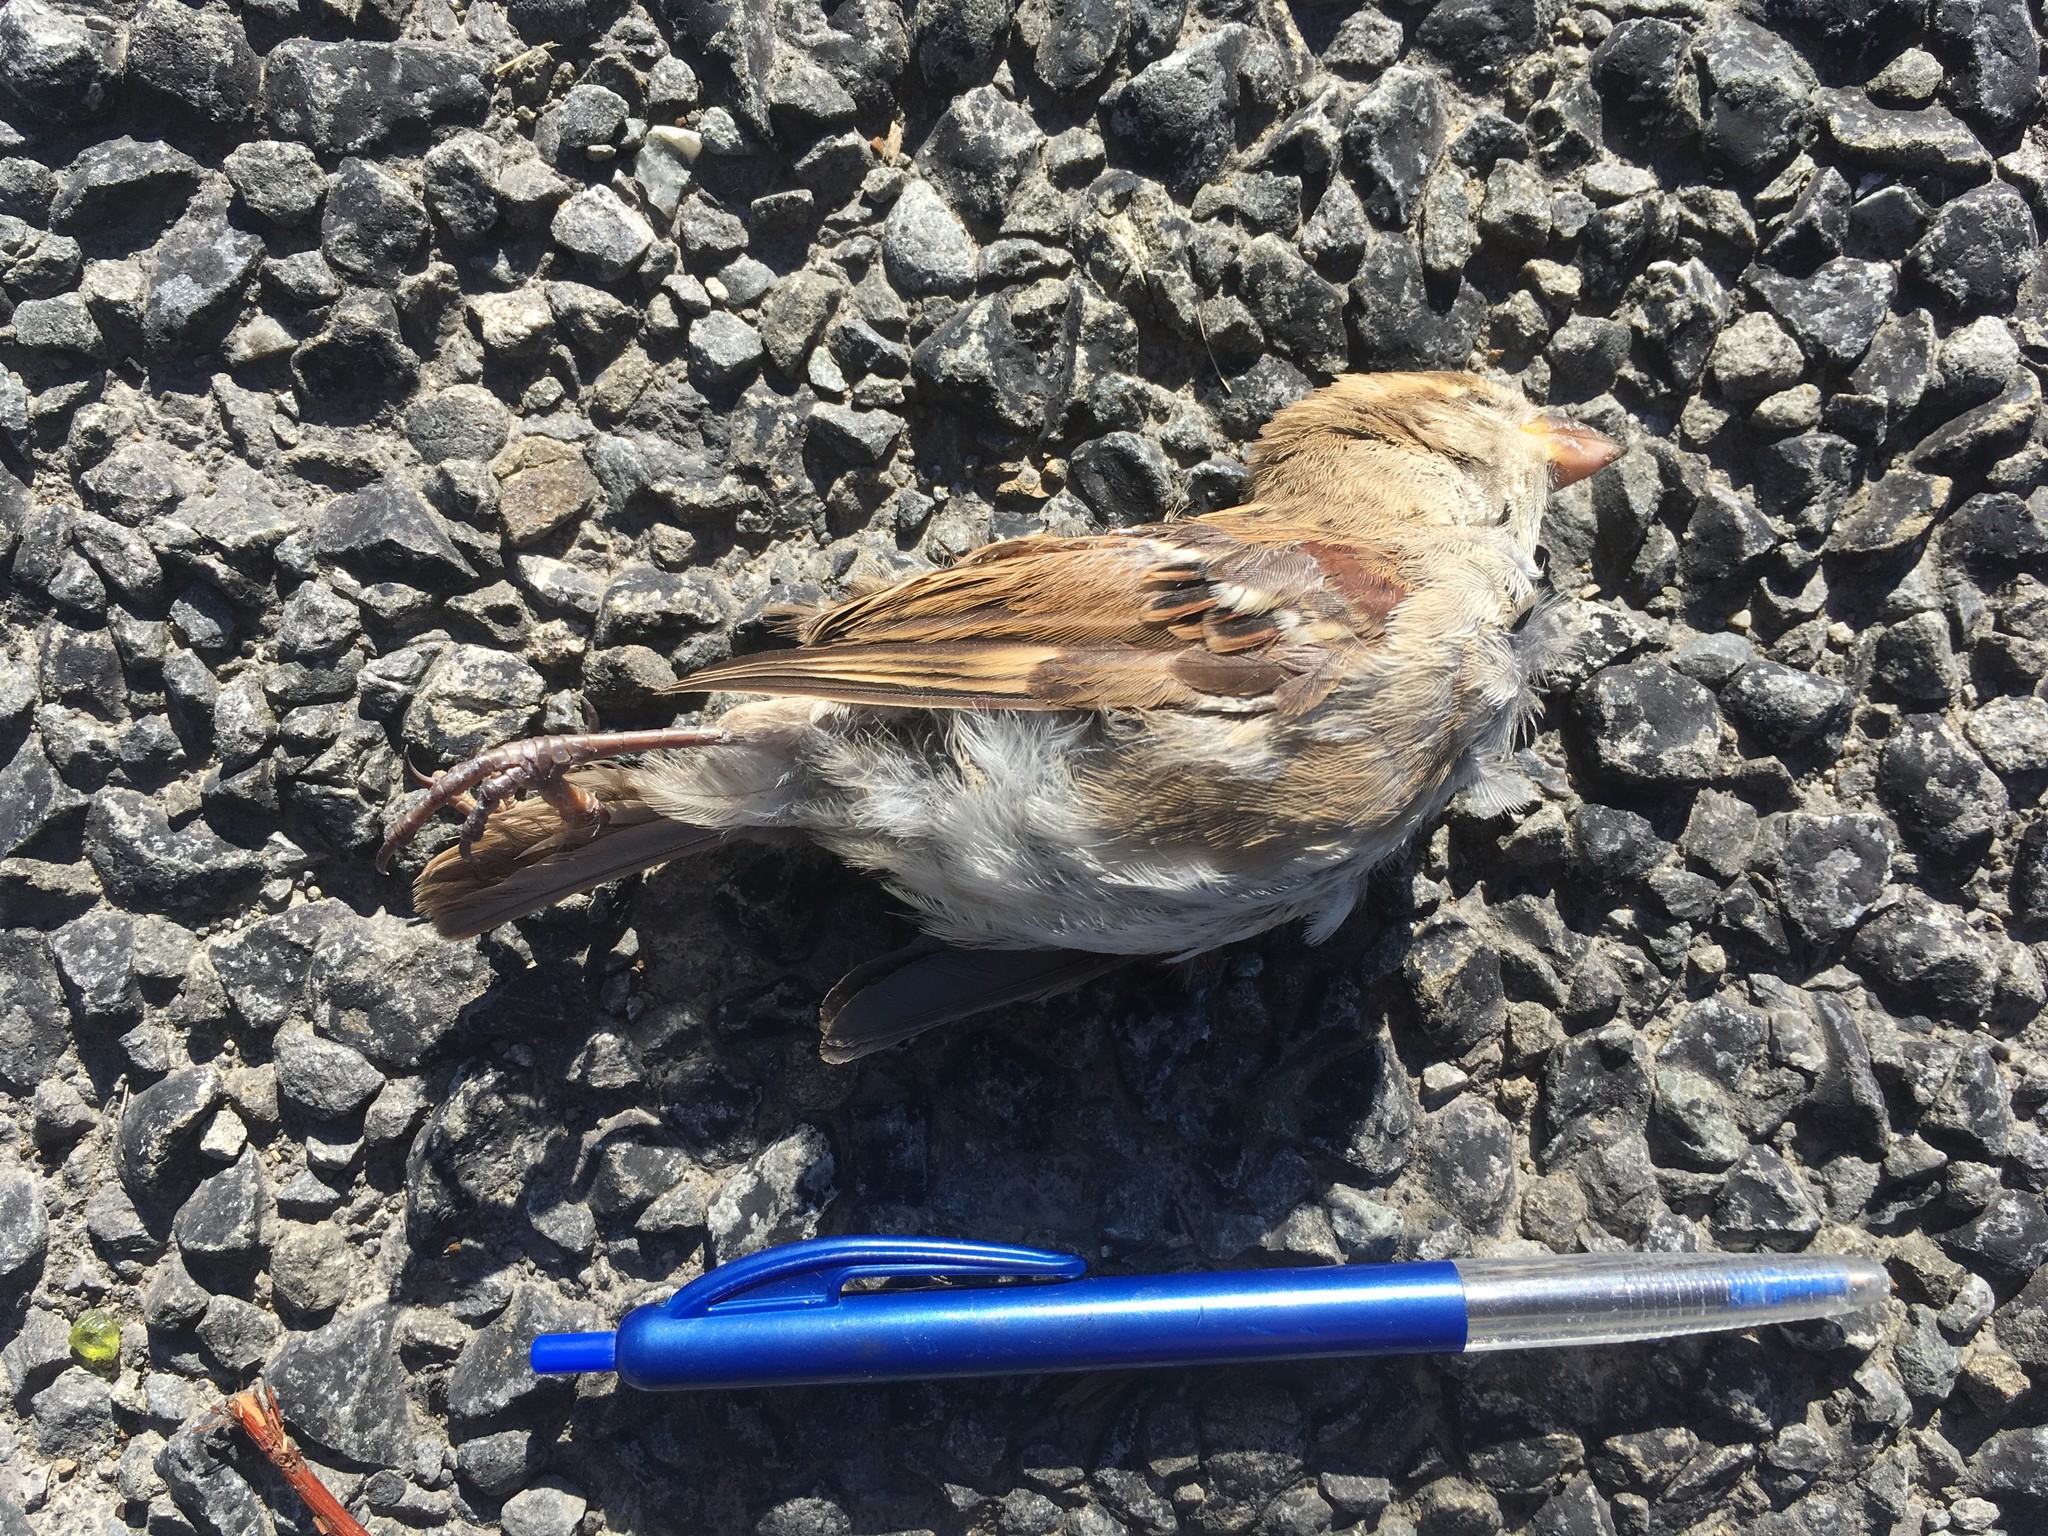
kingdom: Animalia
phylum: Chordata
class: Aves
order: Passeriformes
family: Passeridae
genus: Passer
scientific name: Passer domesticus
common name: House sparrow
